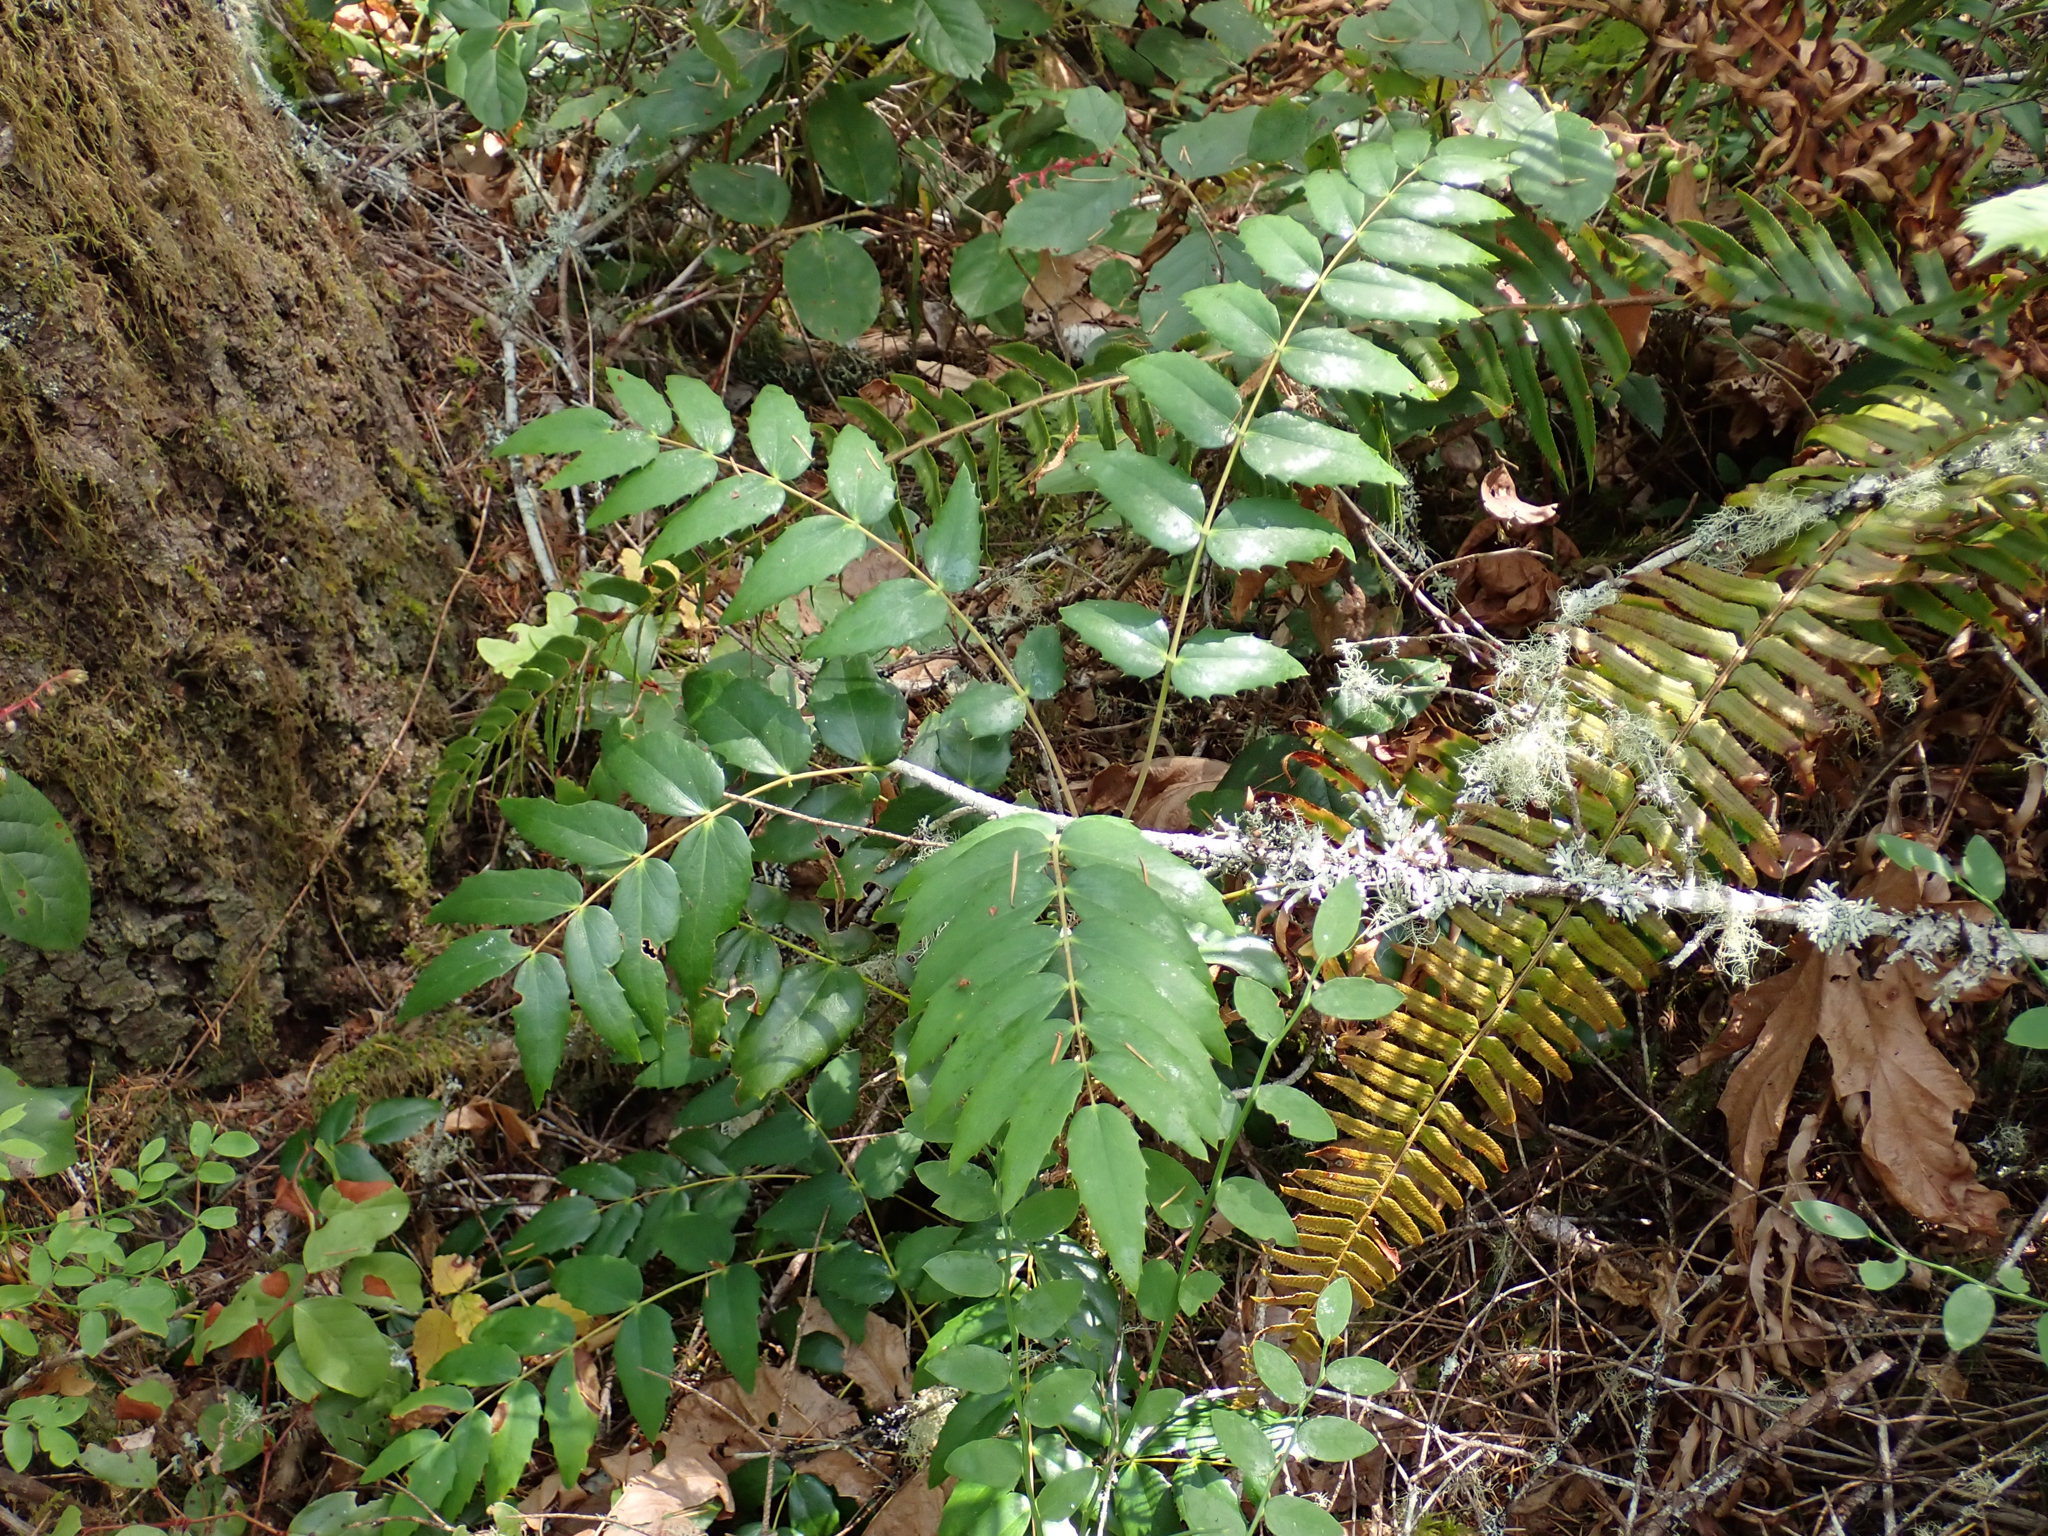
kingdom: Plantae
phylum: Tracheophyta
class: Magnoliopsida
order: Ranunculales
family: Berberidaceae
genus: Mahonia
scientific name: Mahonia nervosa
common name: Cascade oregon-grape
